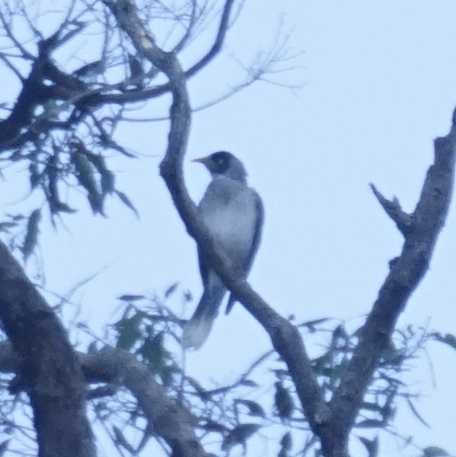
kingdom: Animalia
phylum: Chordata
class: Aves
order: Passeriformes
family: Meliphagidae
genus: Manorina
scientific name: Manorina melanocephala
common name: Noisy miner
